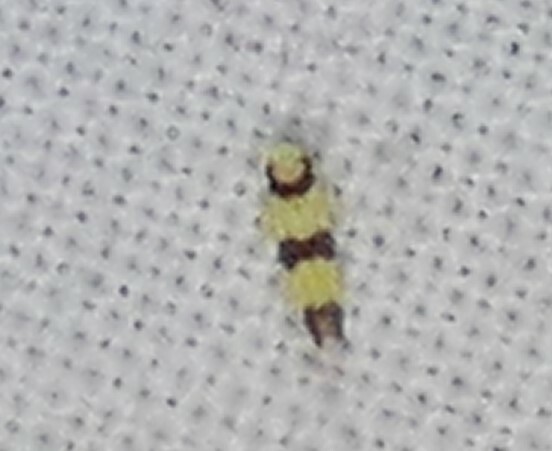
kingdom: Animalia
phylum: Arthropoda
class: Insecta
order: Hemiptera
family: Cicadellidae
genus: Erythroneura
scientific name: Erythroneura calycula
